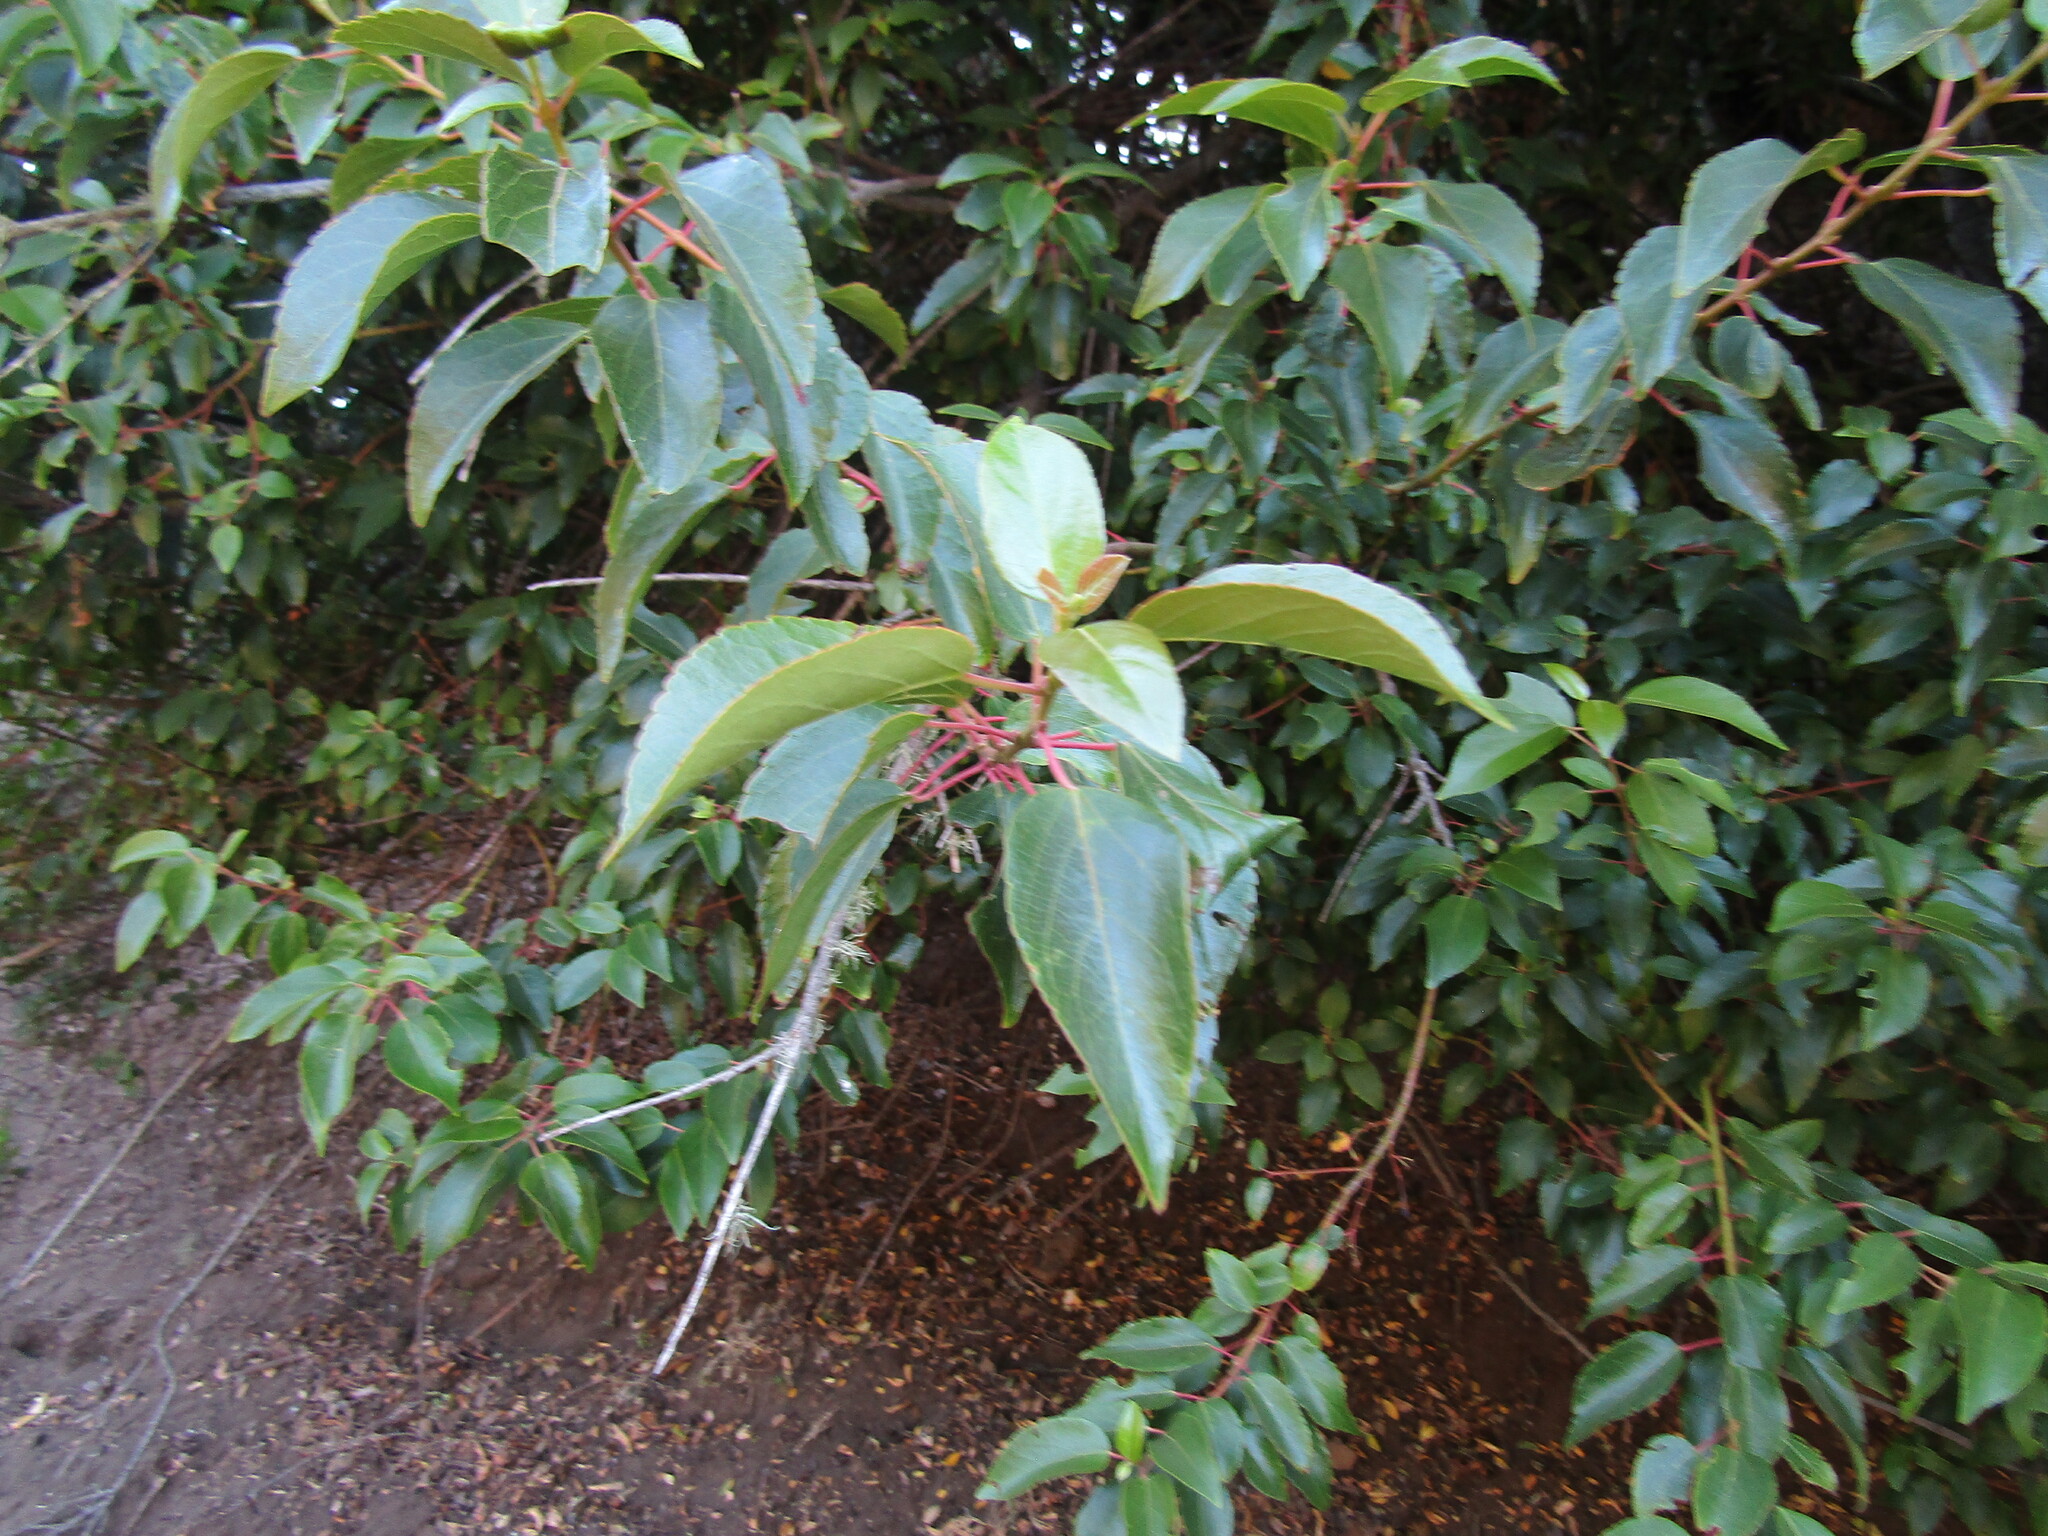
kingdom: Plantae
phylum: Tracheophyta
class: Magnoliopsida
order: Oxalidales
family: Elaeocarpaceae
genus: Aristotelia
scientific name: Aristotelia chilensis
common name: Maquei
